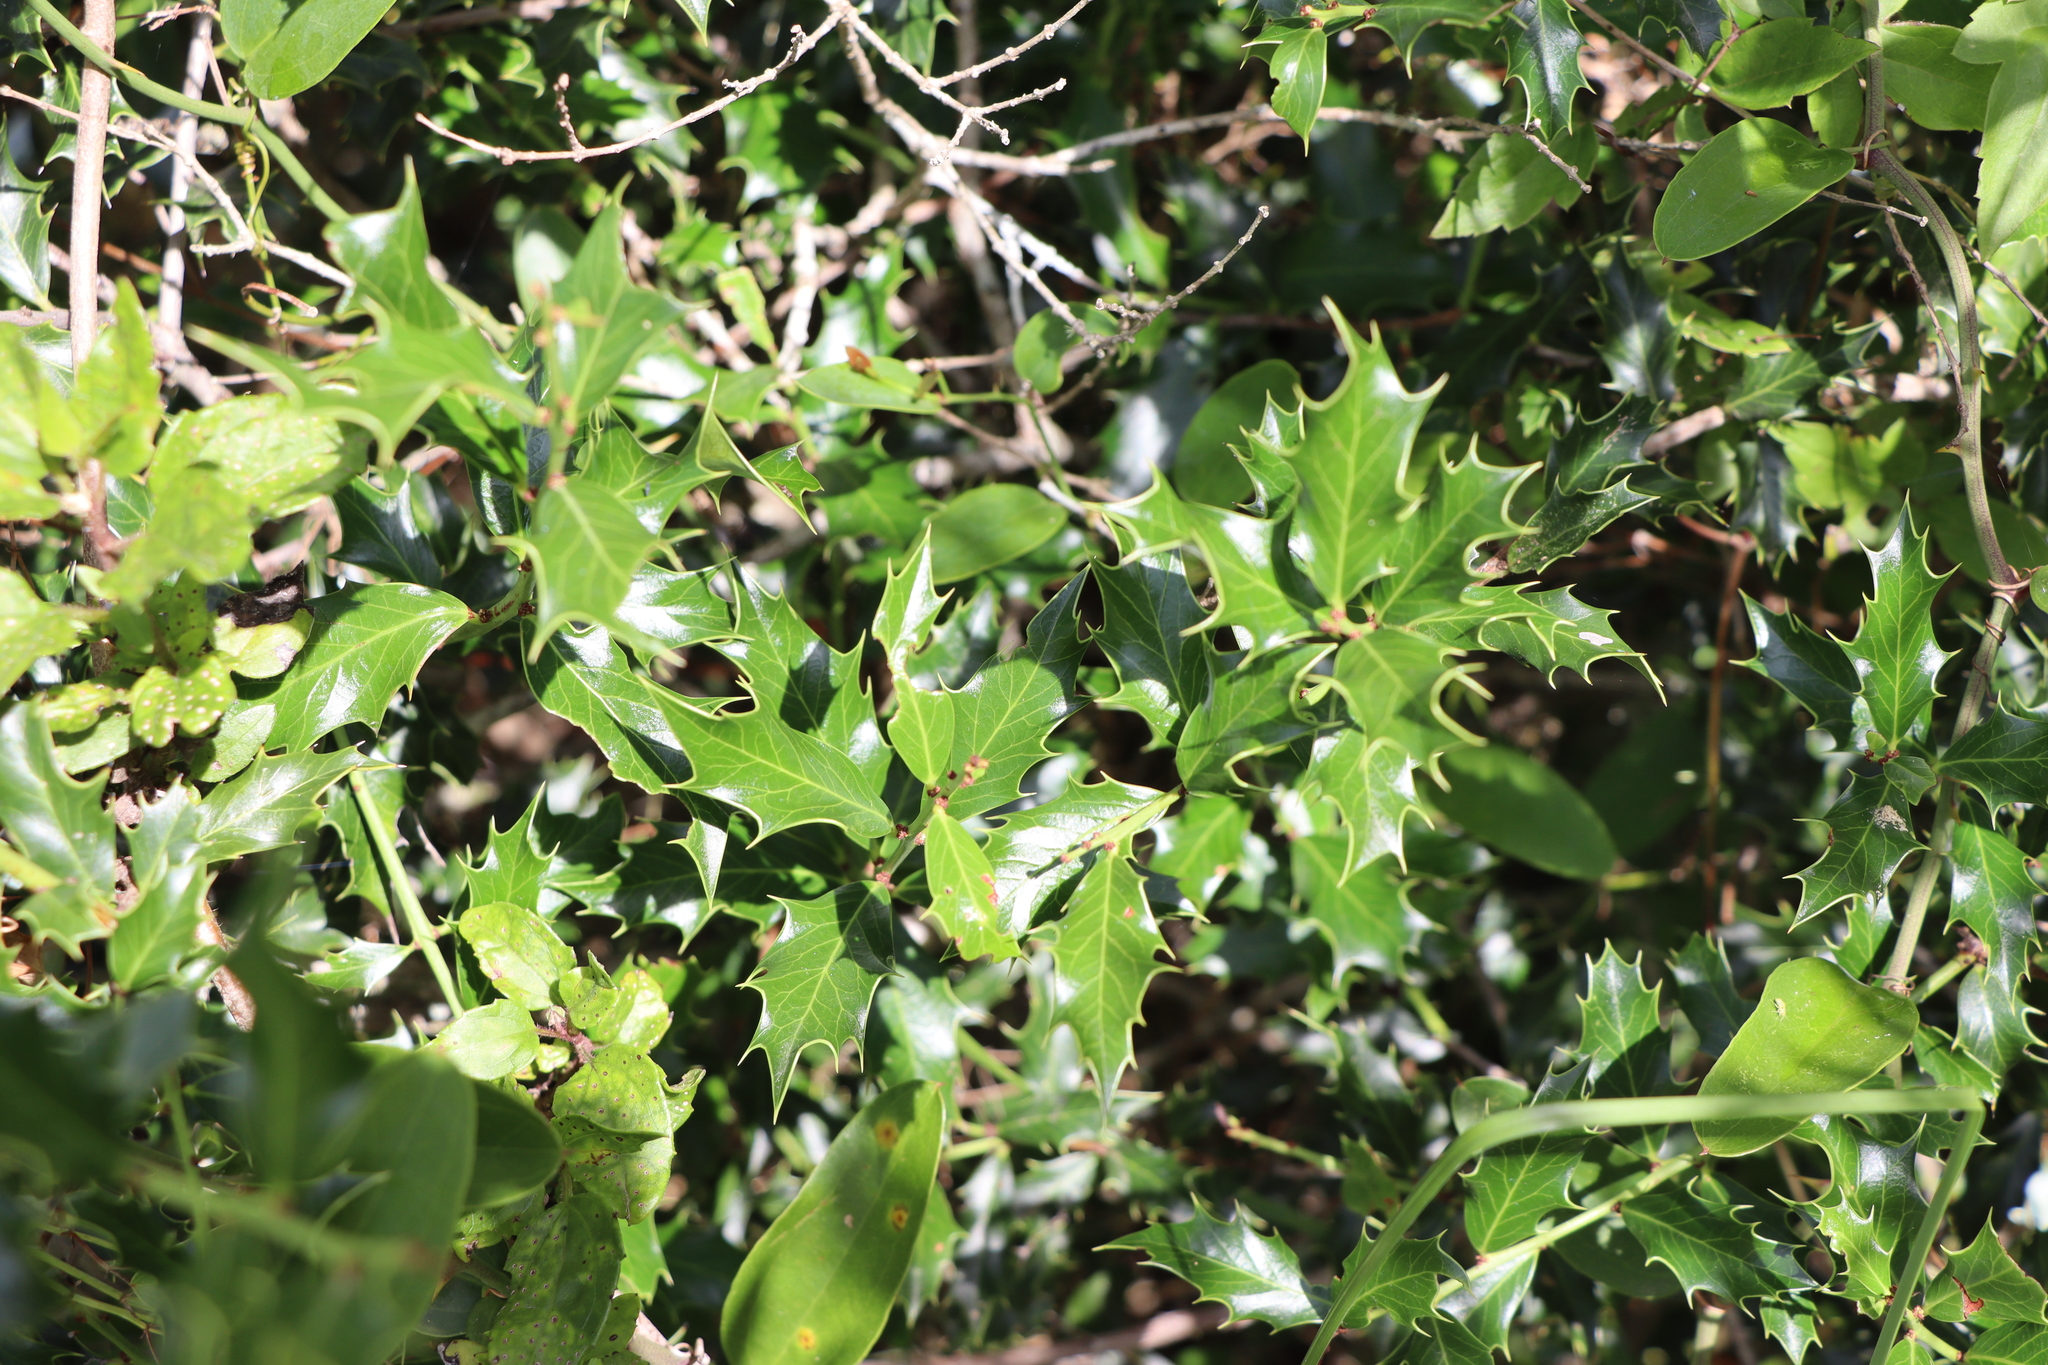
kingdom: Plantae
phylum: Tracheophyta
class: Magnoliopsida
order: Celastrales
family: Celastraceae
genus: Monteverdia
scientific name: Monteverdia
